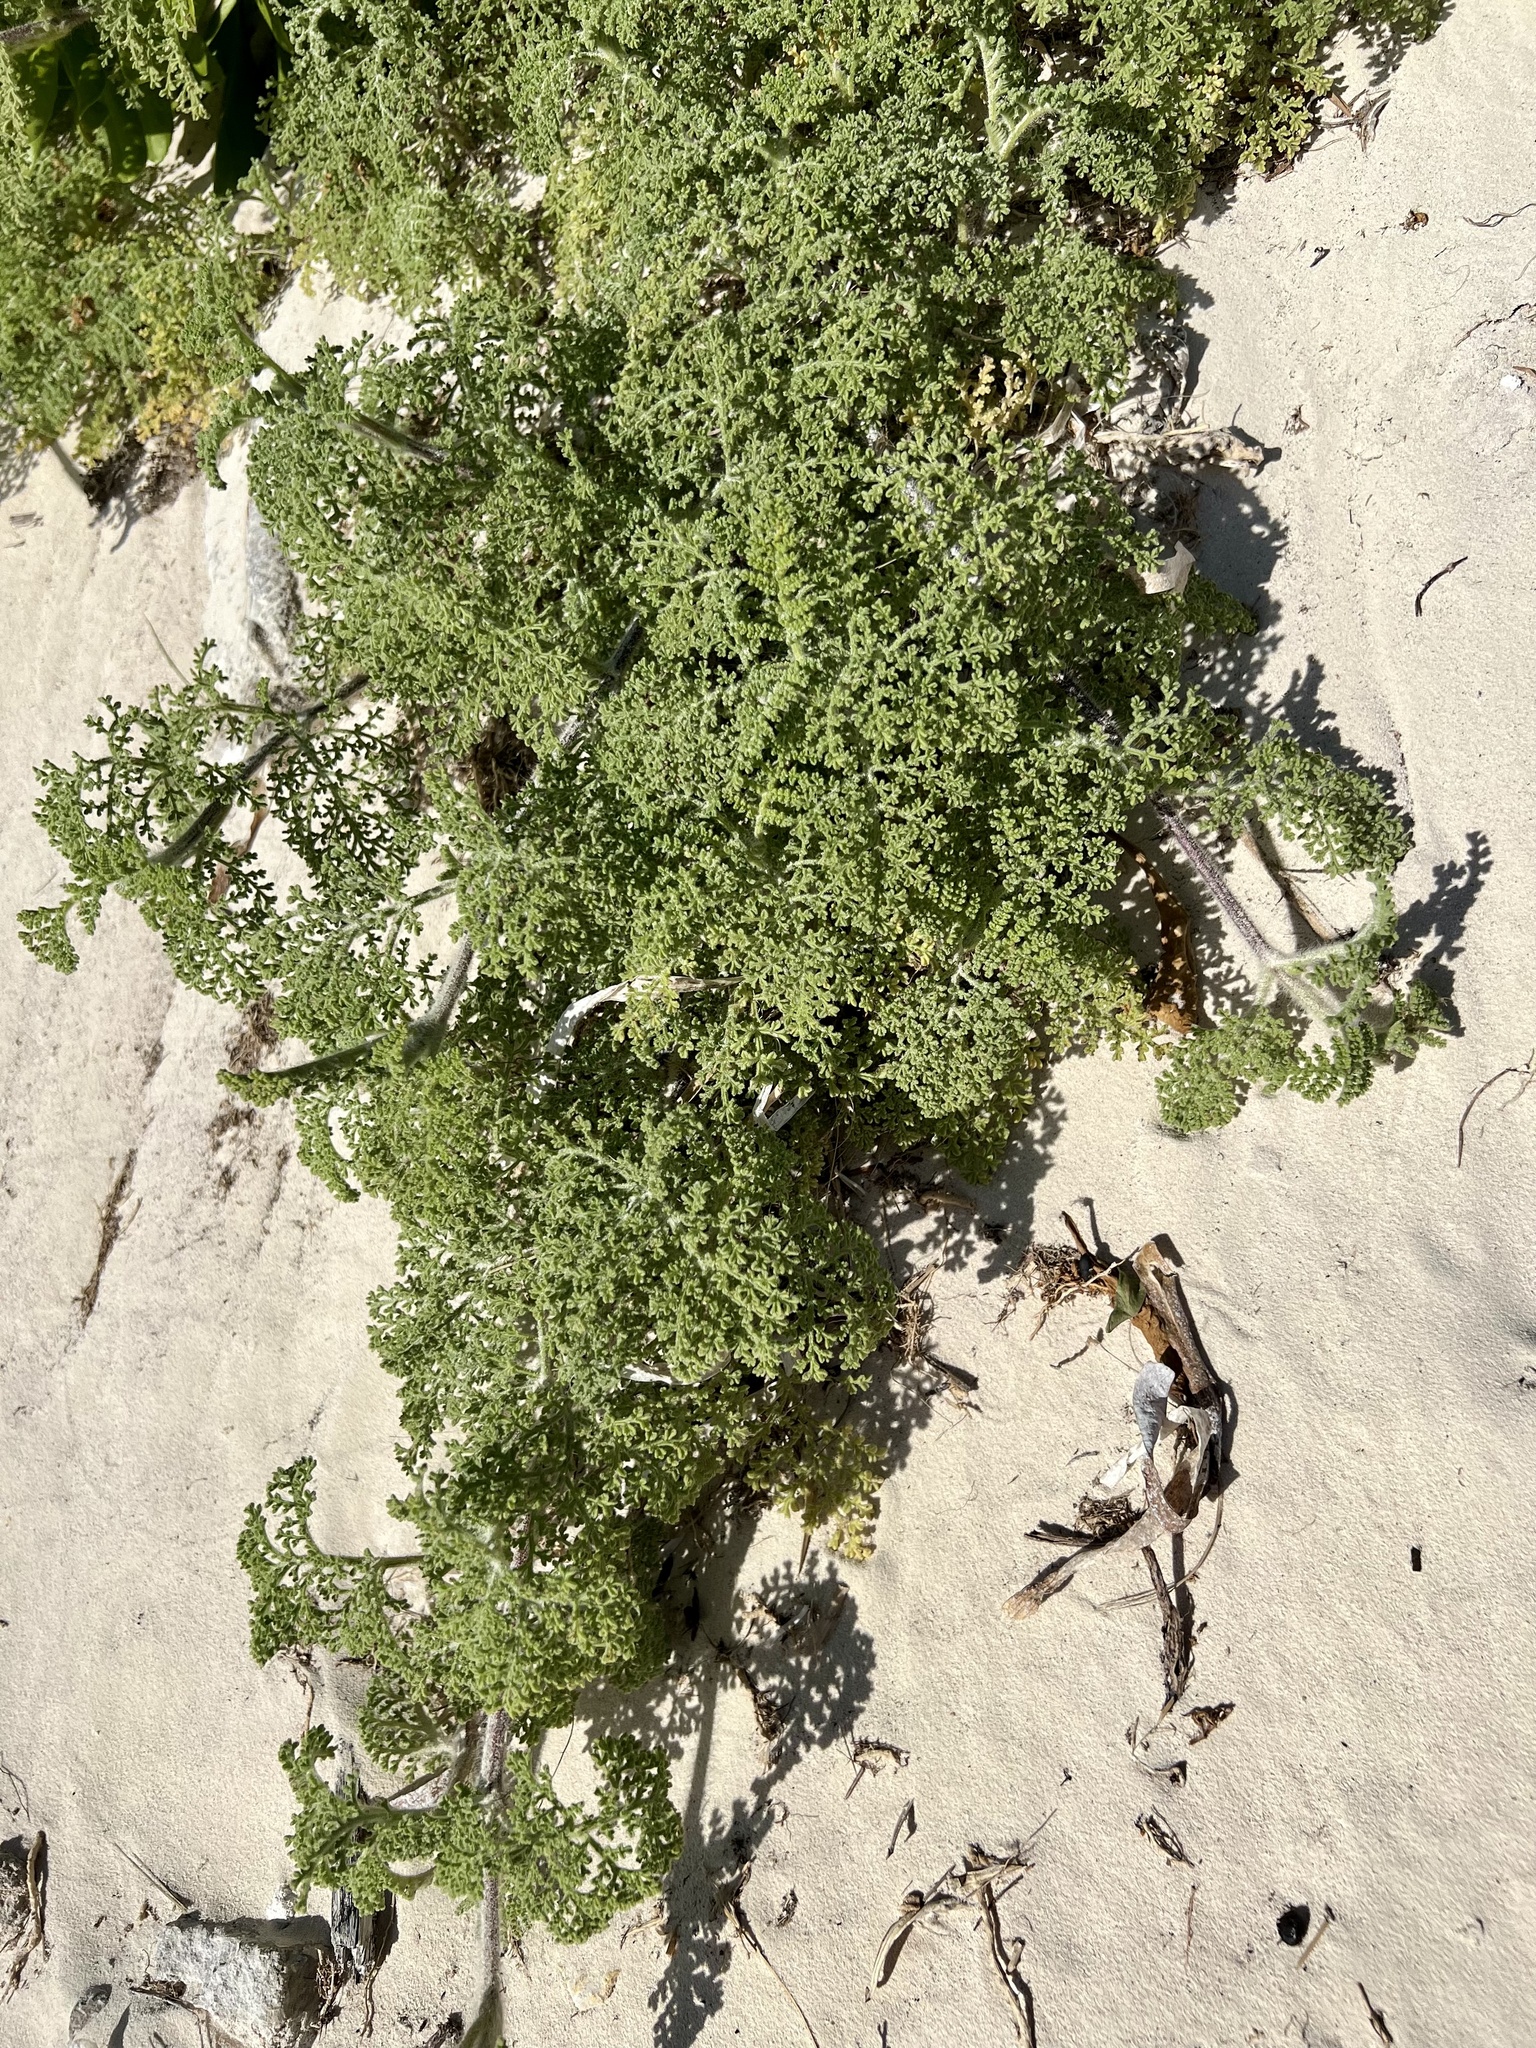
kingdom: Plantae
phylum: Tracheophyta
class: Magnoliopsida
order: Asterales
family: Asteraceae
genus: Ambrosia
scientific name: Ambrosia hispida
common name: Coastal ragweed
